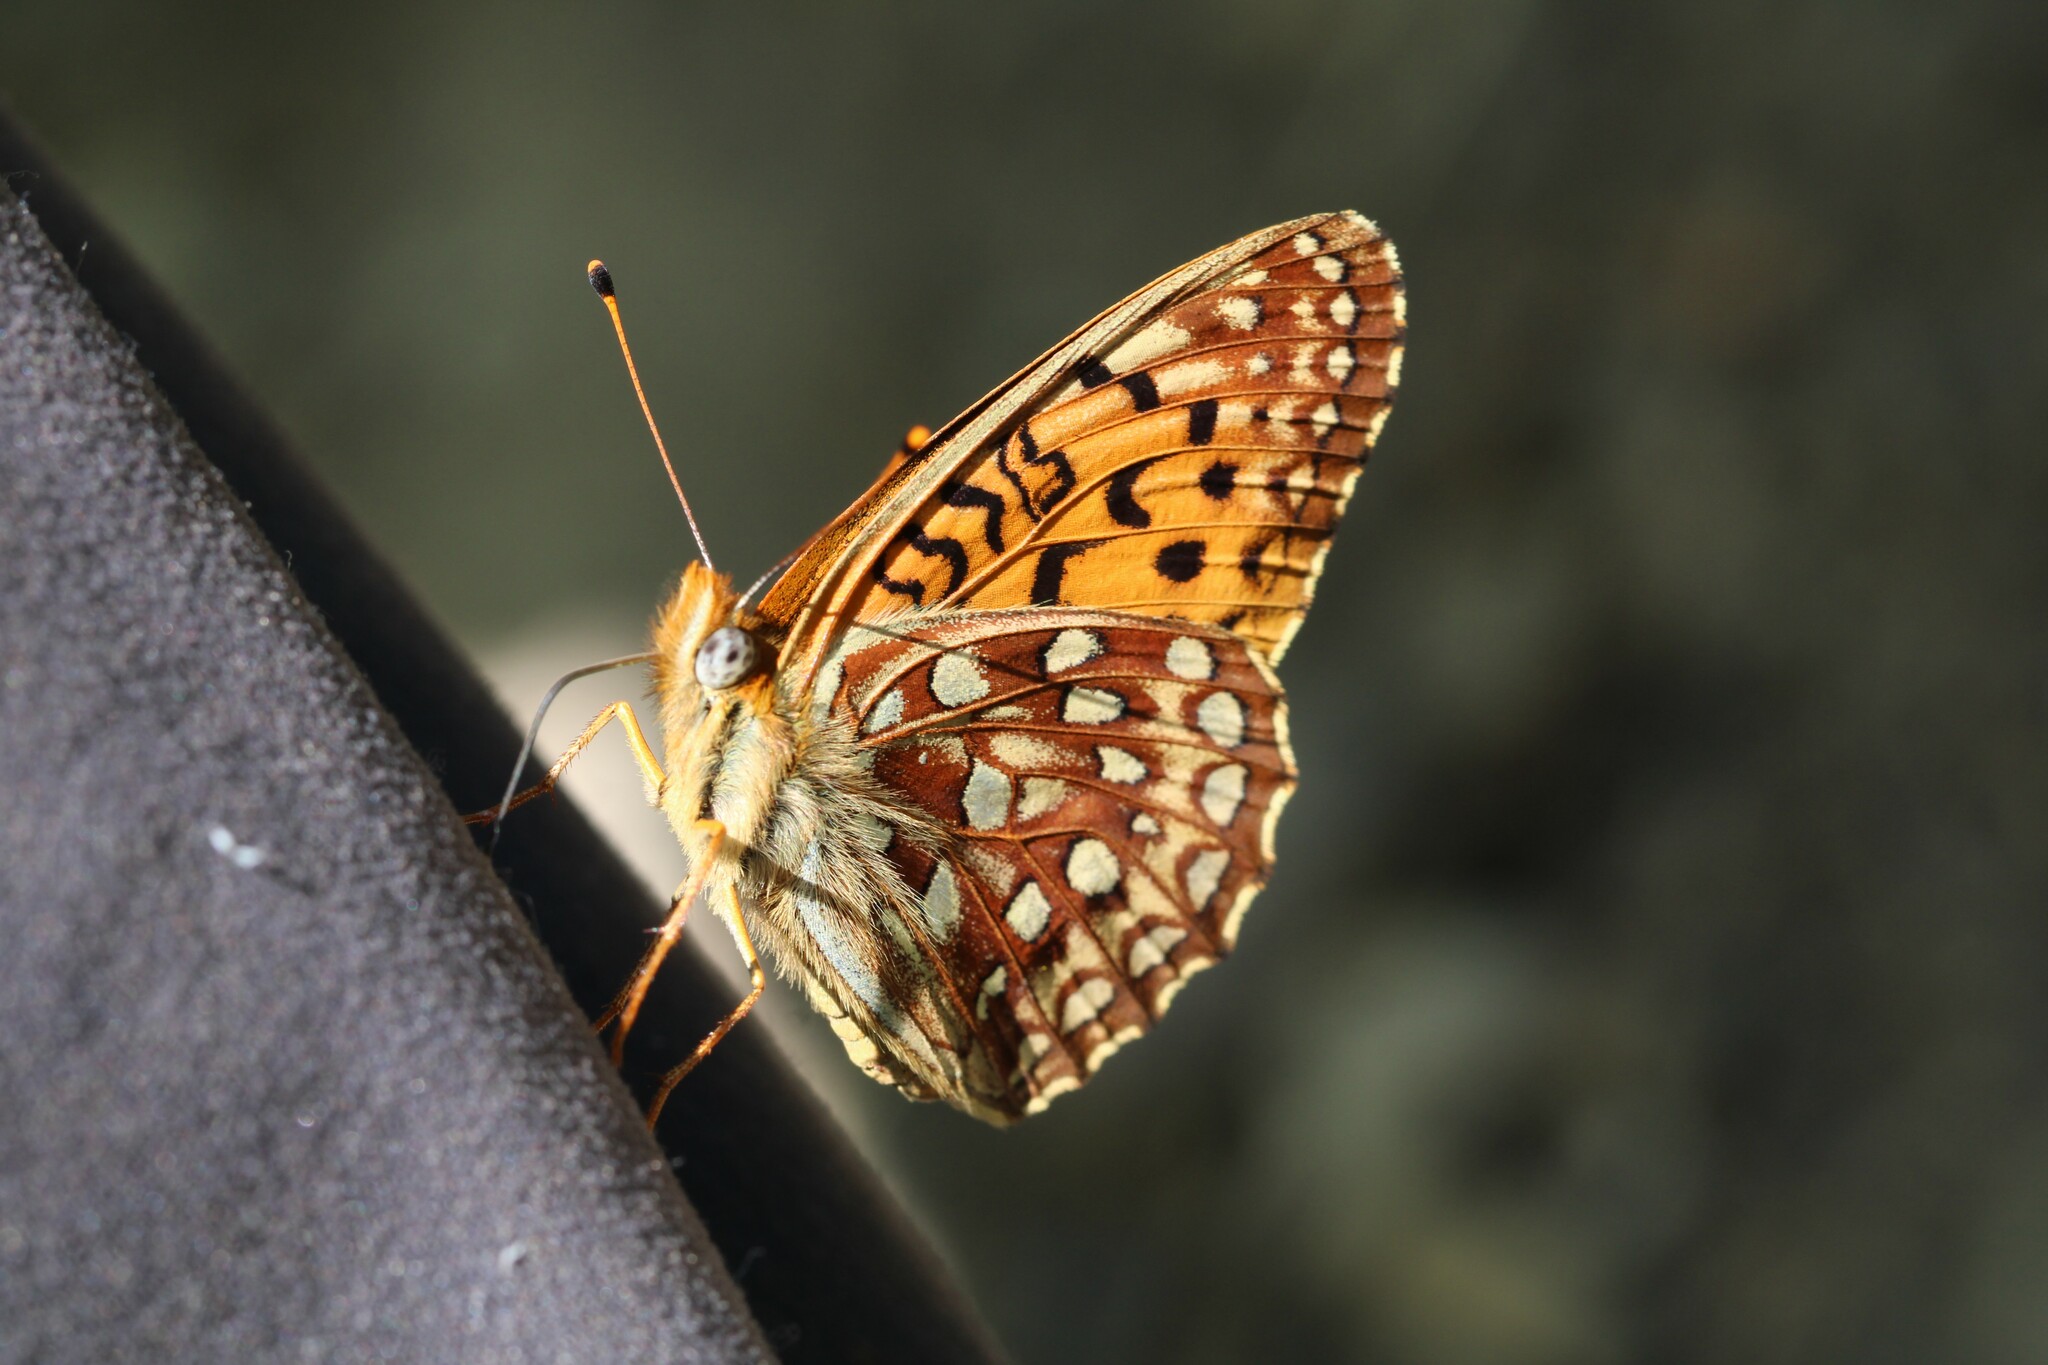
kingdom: Animalia
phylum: Arthropoda
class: Insecta
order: Lepidoptera
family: Nymphalidae
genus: Speyeria
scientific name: Speyeria atlantis
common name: Atlantis fritillary
